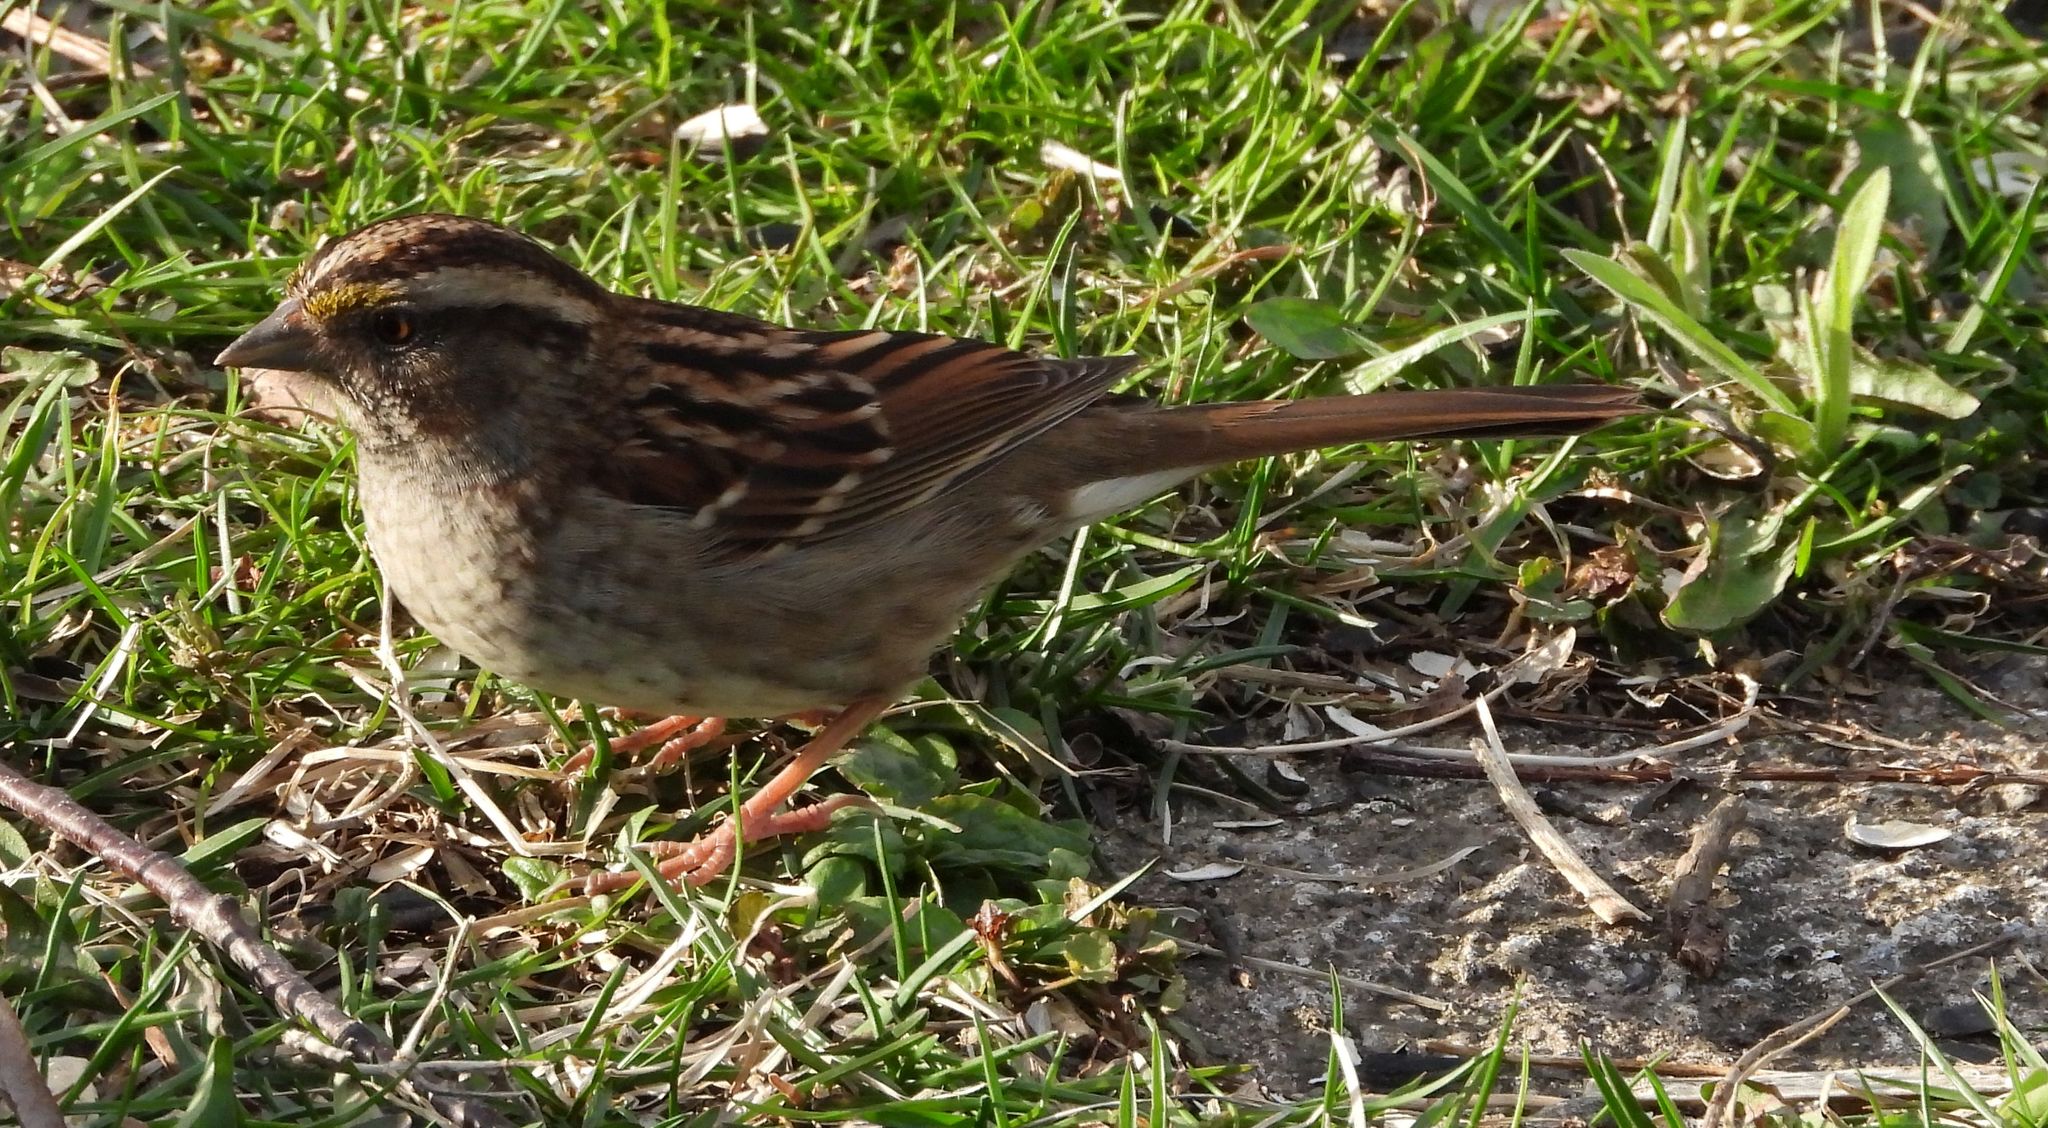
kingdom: Animalia
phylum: Chordata
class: Aves
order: Passeriformes
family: Passerellidae
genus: Zonotrichia
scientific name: Zonotrichia albicollis
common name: White-throated sparrow
